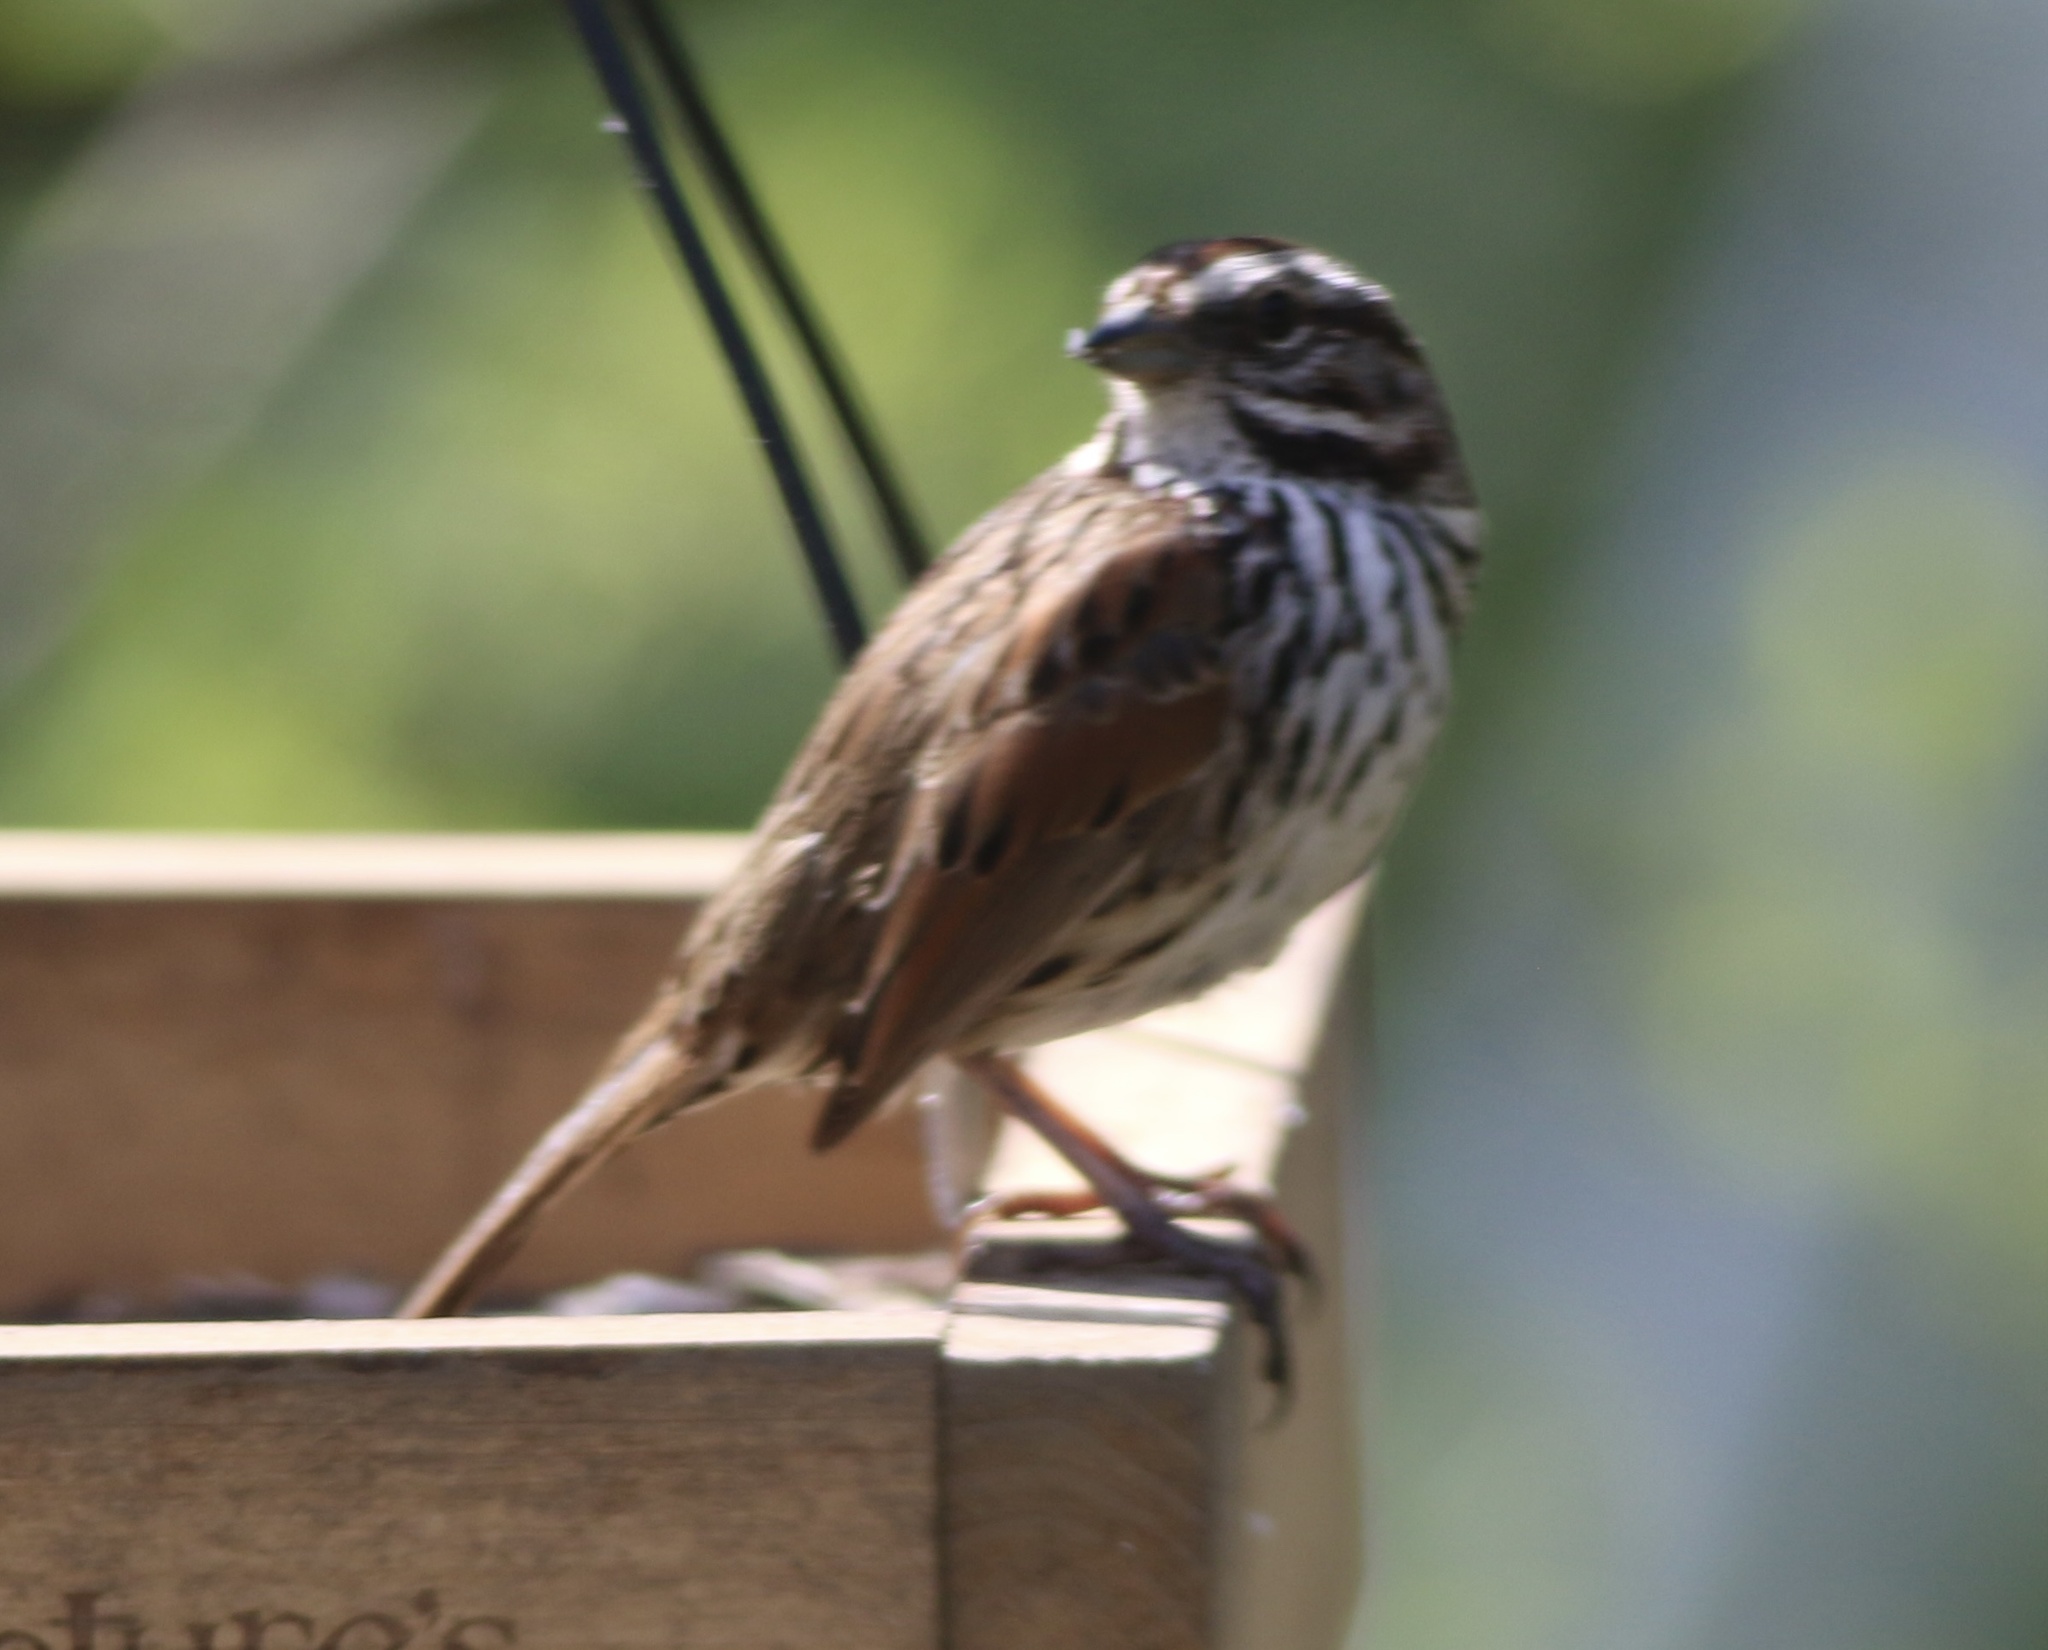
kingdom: Animalia
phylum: Chordata
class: Aves
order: Passeriformes
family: Passerellidae
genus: Melospiza
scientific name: Melospiza melodia
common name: Song sparrow
